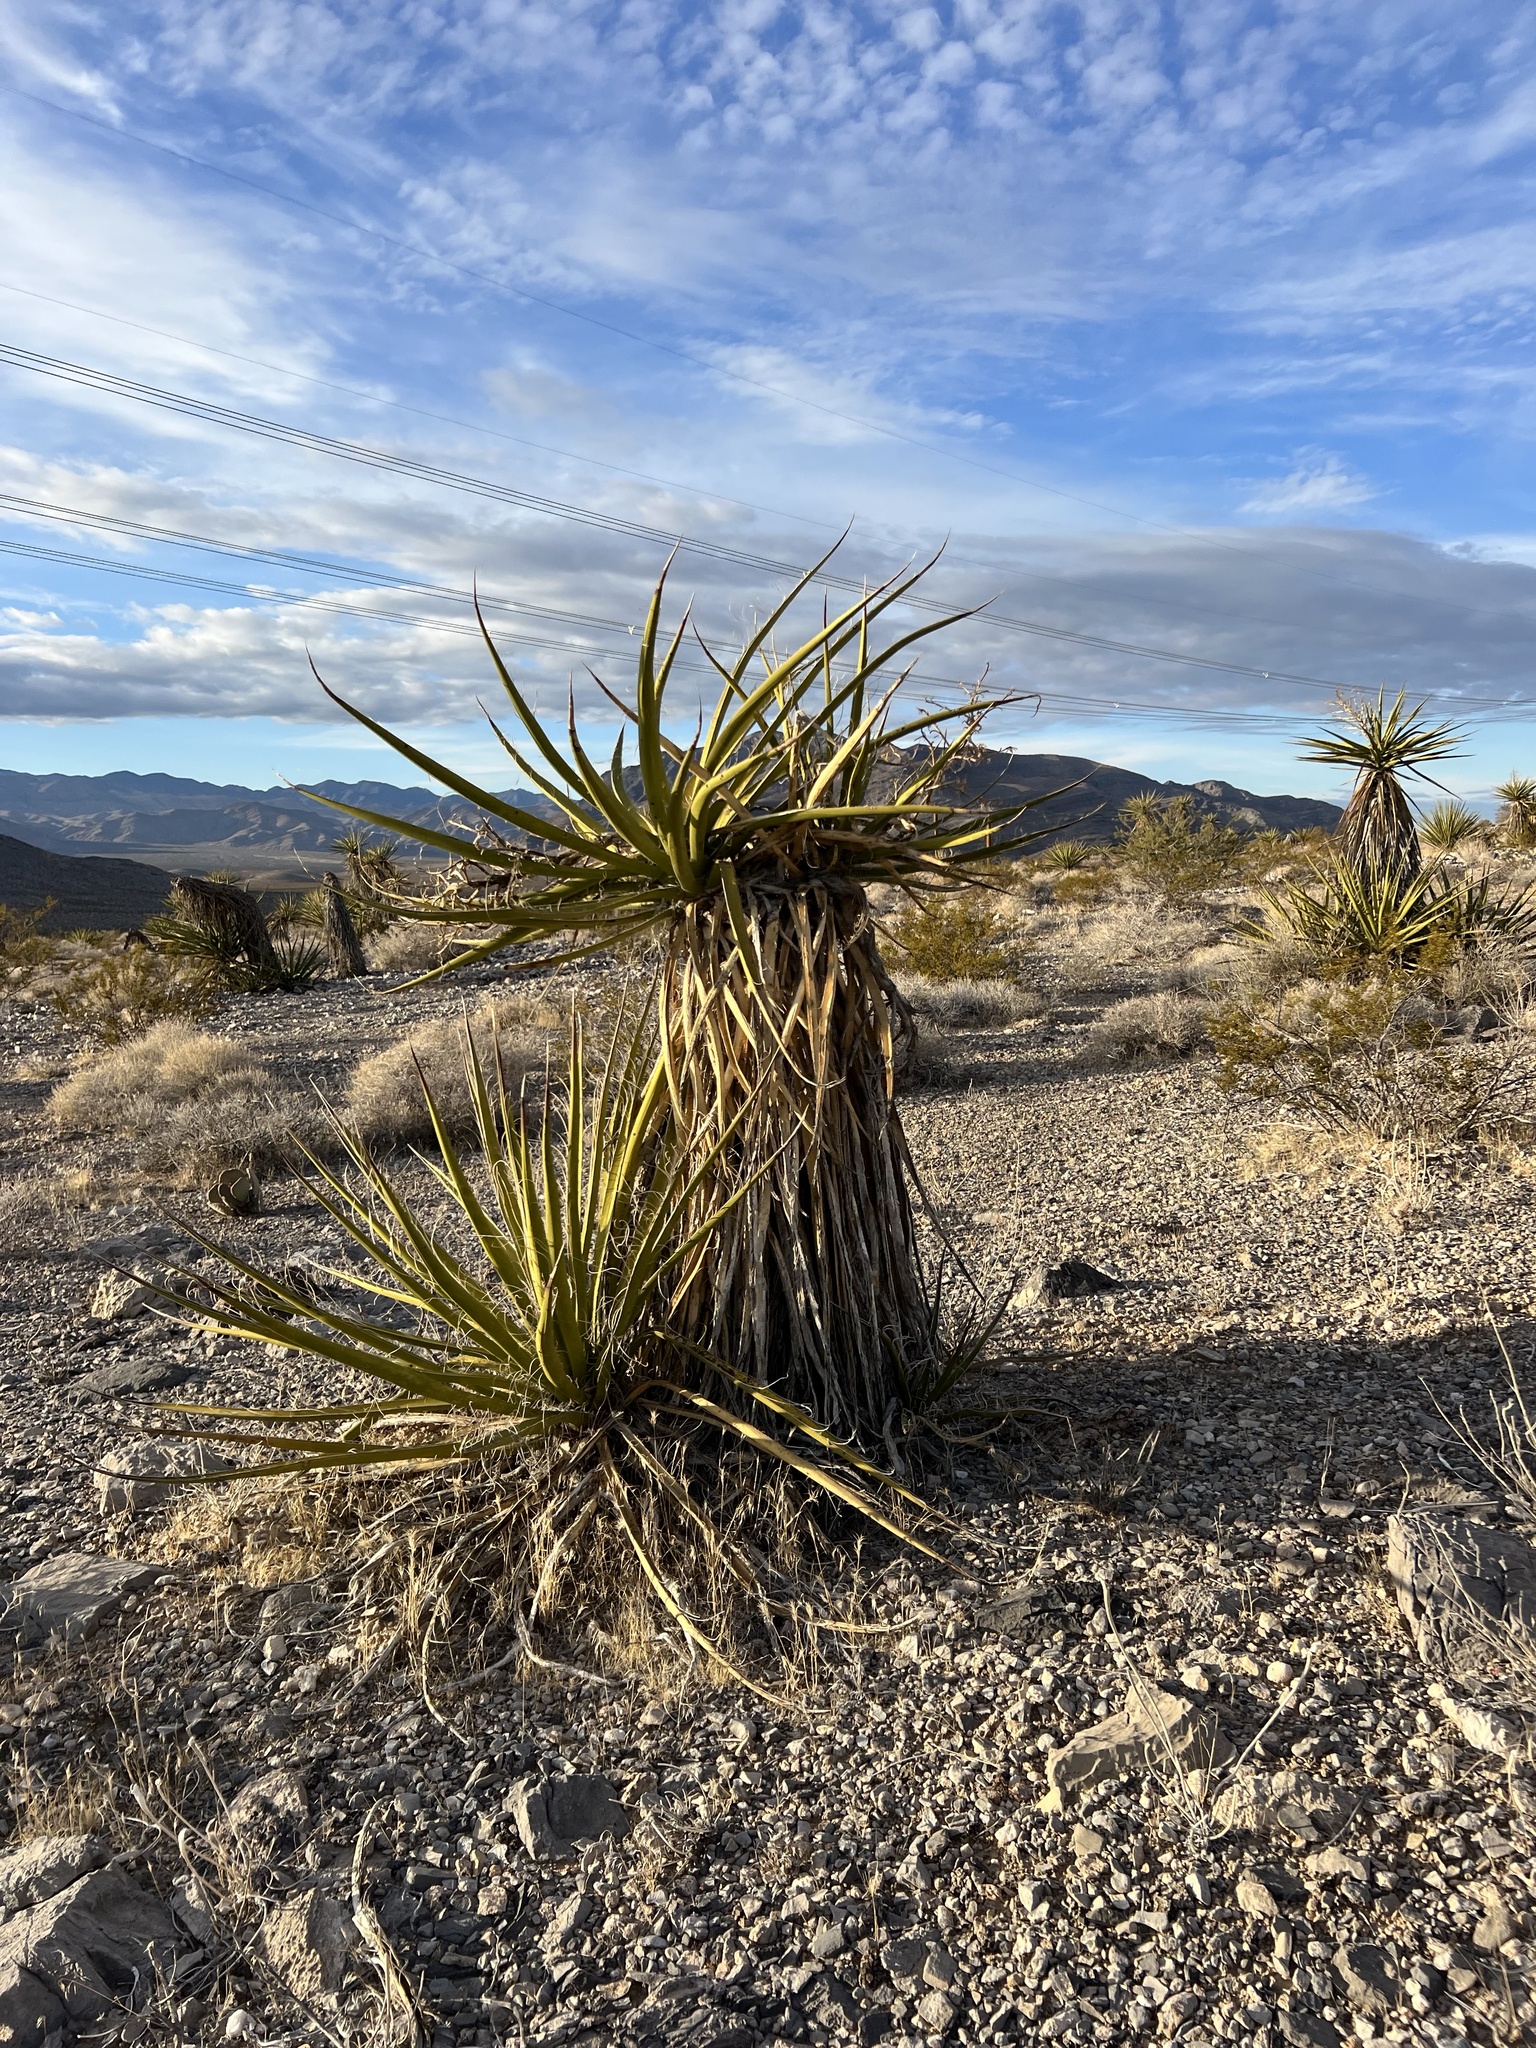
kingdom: Plantae
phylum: Tracheophyta
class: Liliopsida
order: Asparagales
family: Asparagaceae
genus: Yucca
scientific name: Yucca schidigera
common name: Mojave yucca
